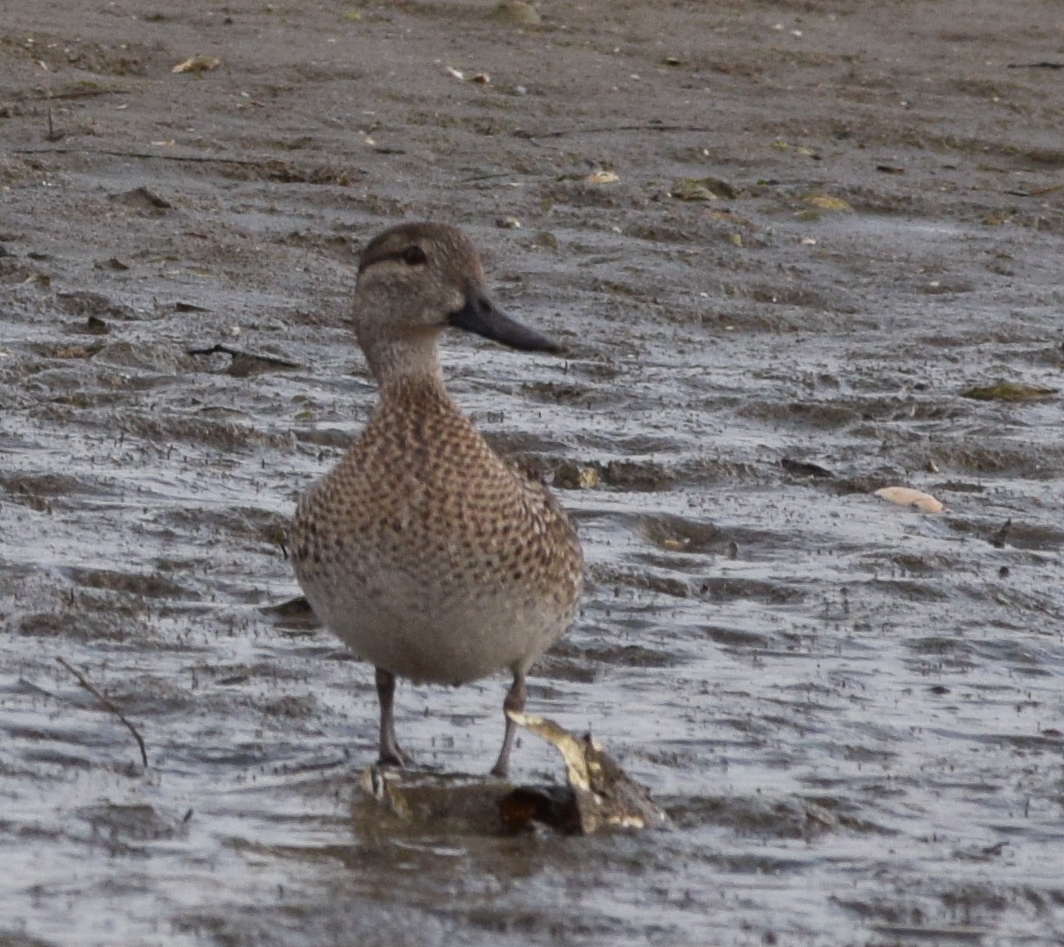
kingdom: Animalia
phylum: Chordata
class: Aves
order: Anseriformes
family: Anatidae
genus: Anas
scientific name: Anas crecca
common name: Eurasian teal
